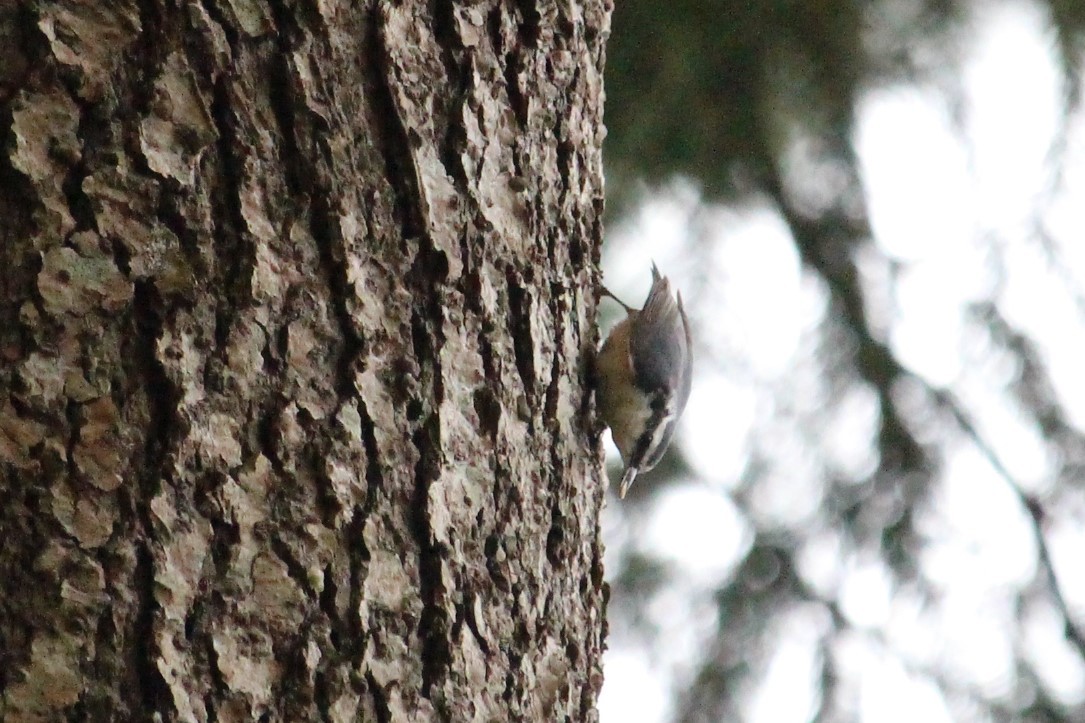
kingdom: Animalia
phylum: Chordata
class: Aves
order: Passeriformes
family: Sittidae
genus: Sitta
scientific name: Sitta canadensis
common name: Red-breasted nuthatch
